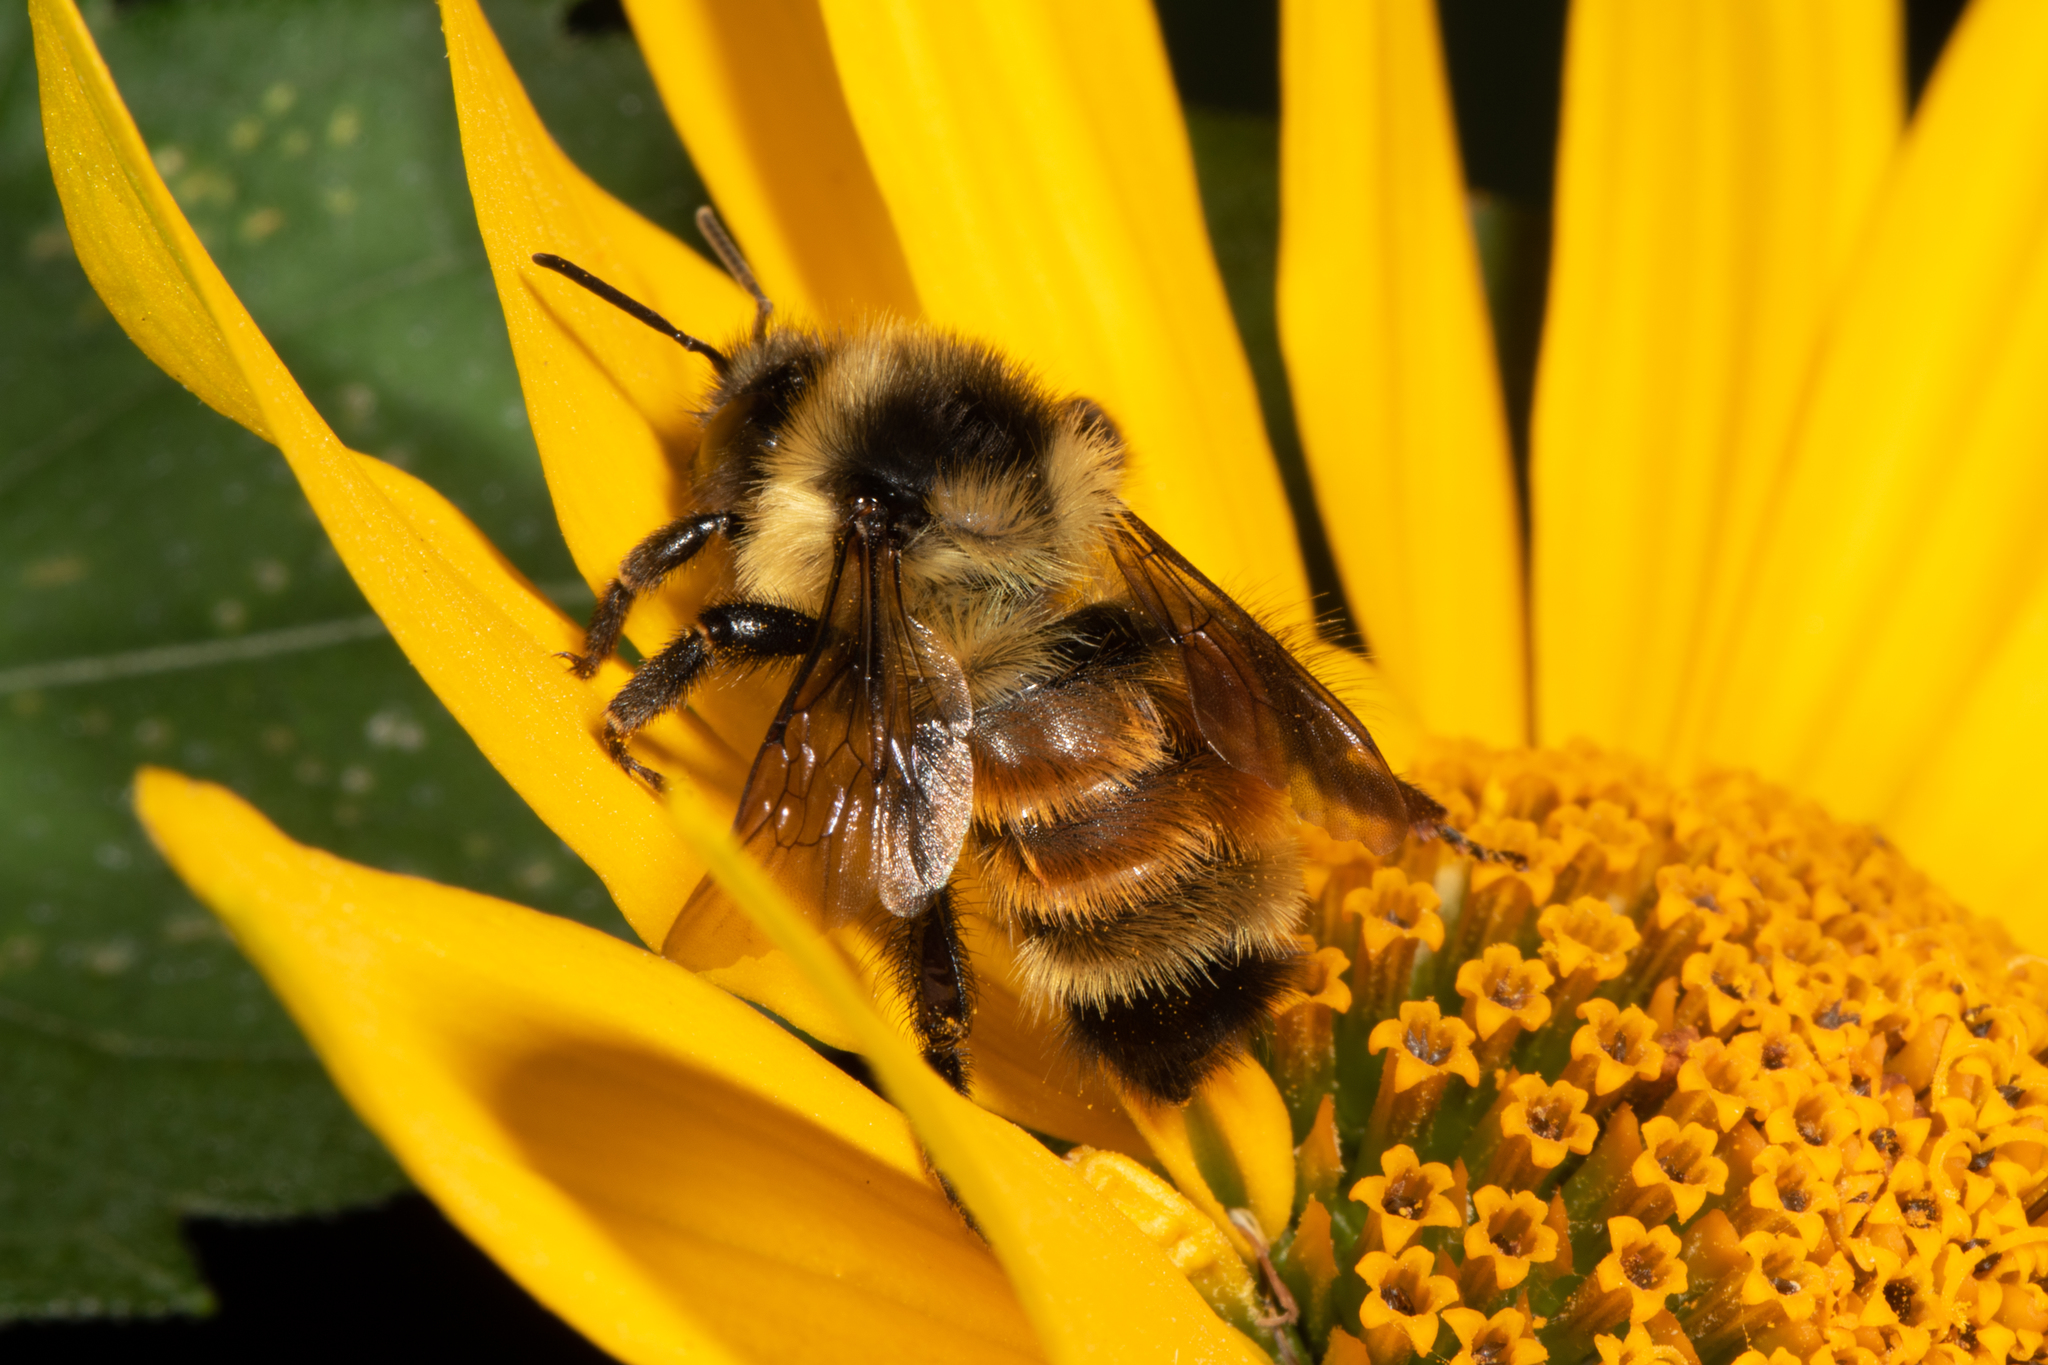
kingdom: Animalia
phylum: Arthropoda
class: Insecta
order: Hymenoptera
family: Apidae
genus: Bombus
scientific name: Bombus ternarius
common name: Tri-colored bumble bee
